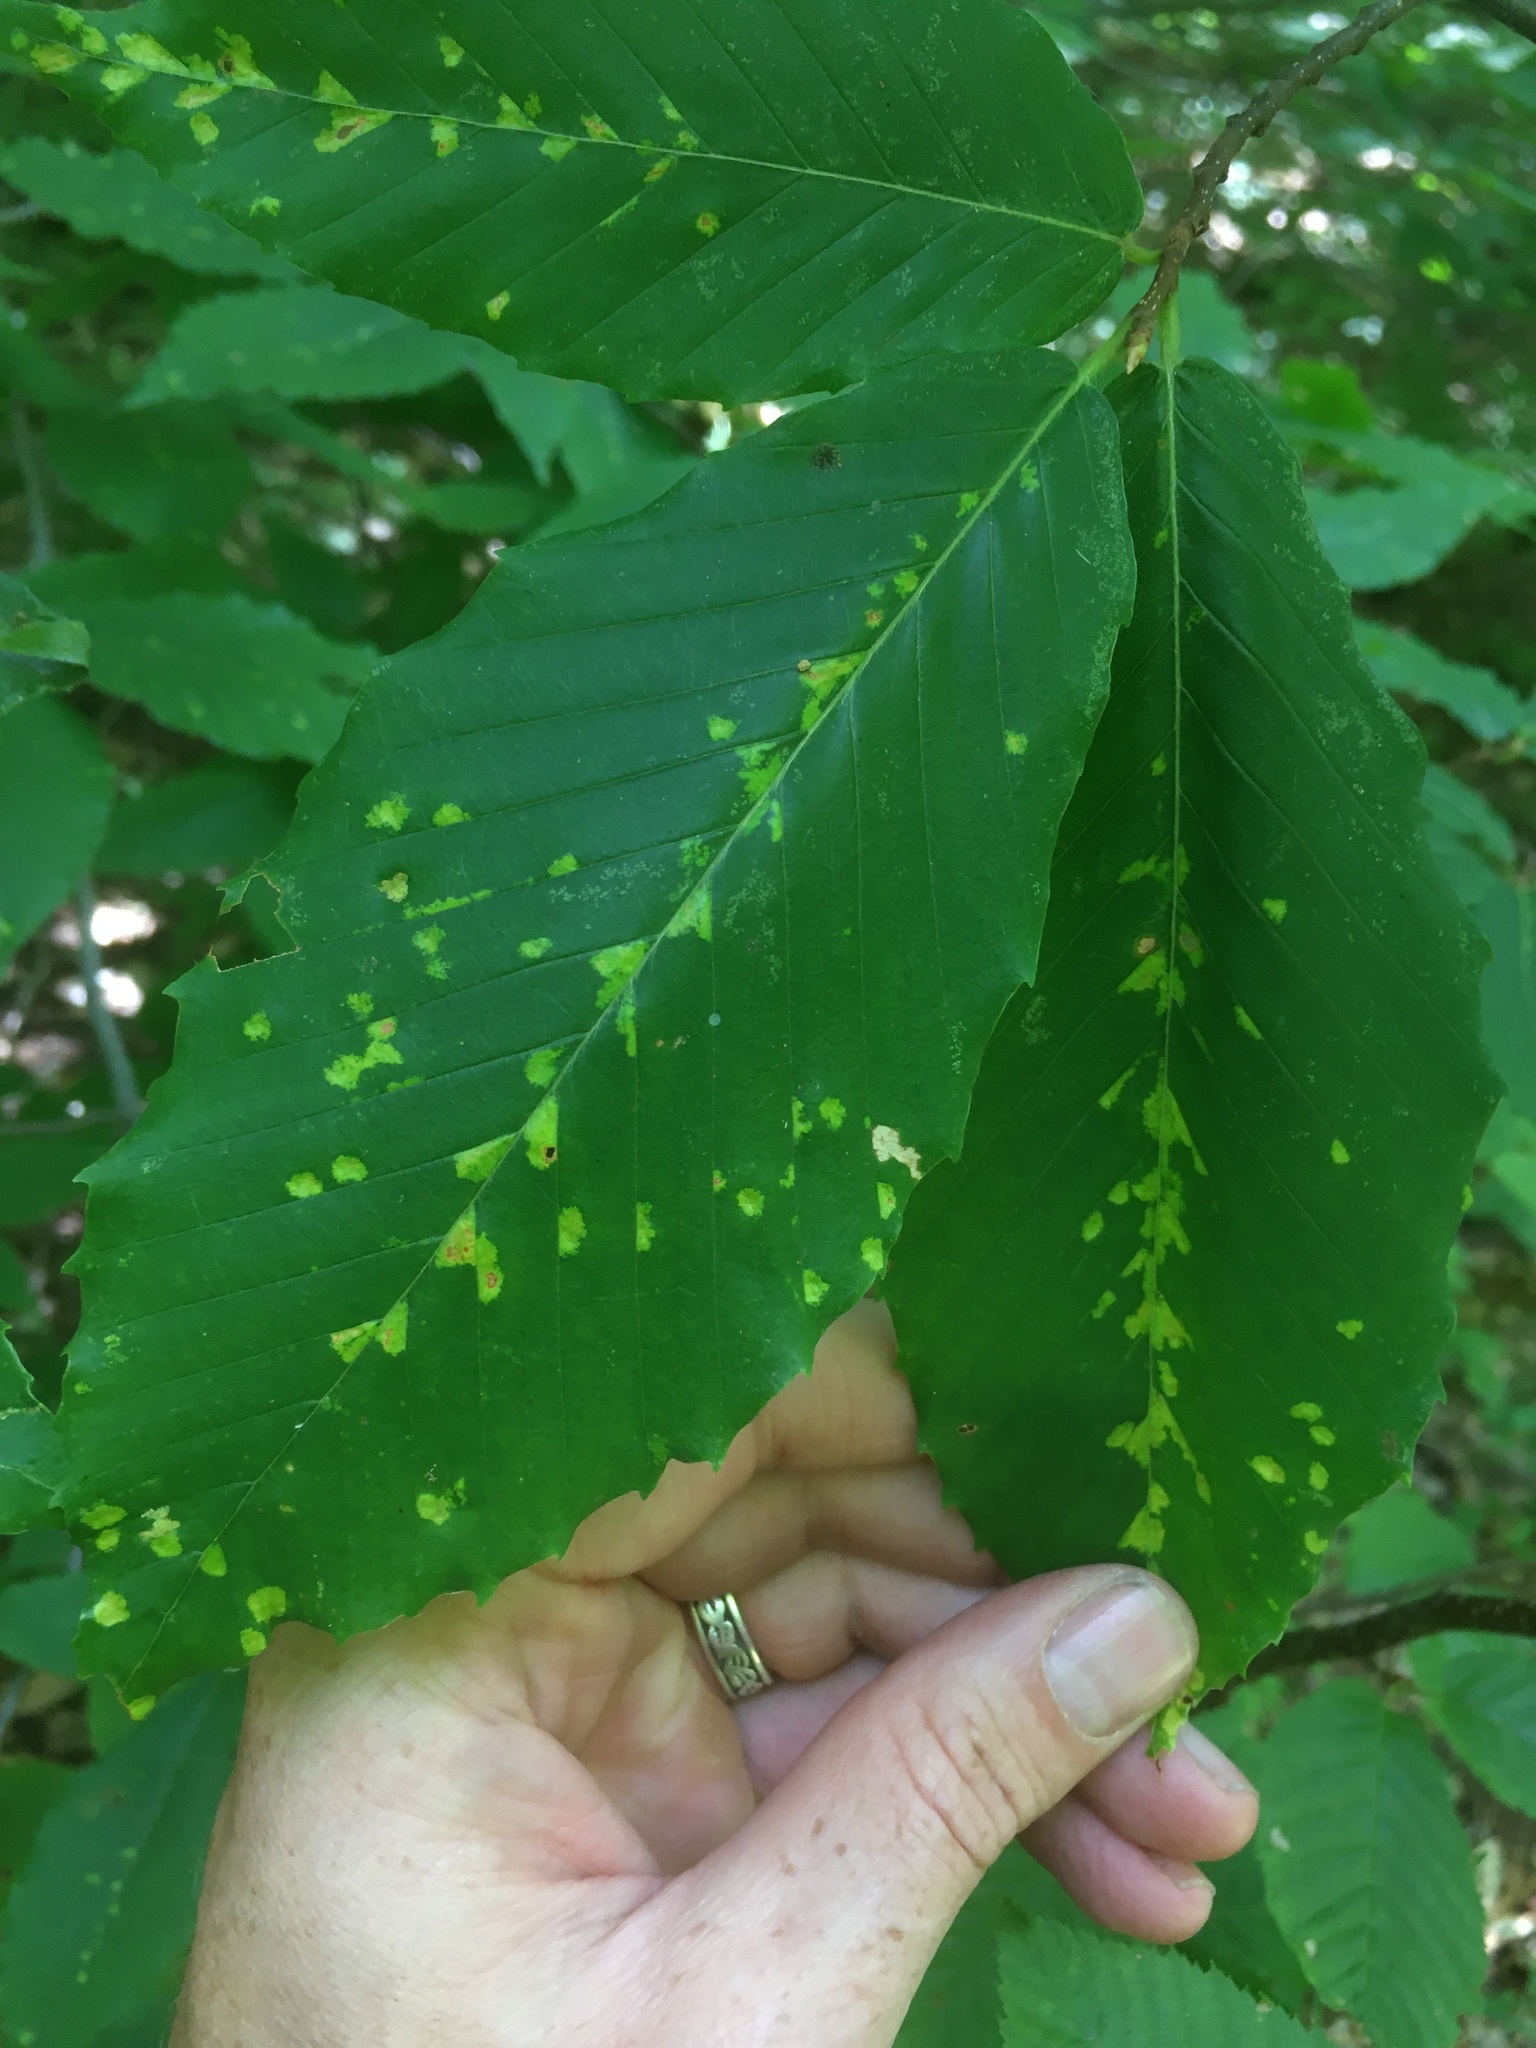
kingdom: Animalia
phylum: Arthropoda
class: Arachnida
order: Trombidiformes
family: Eriophyidae
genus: Acalitus
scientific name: Acalitus
